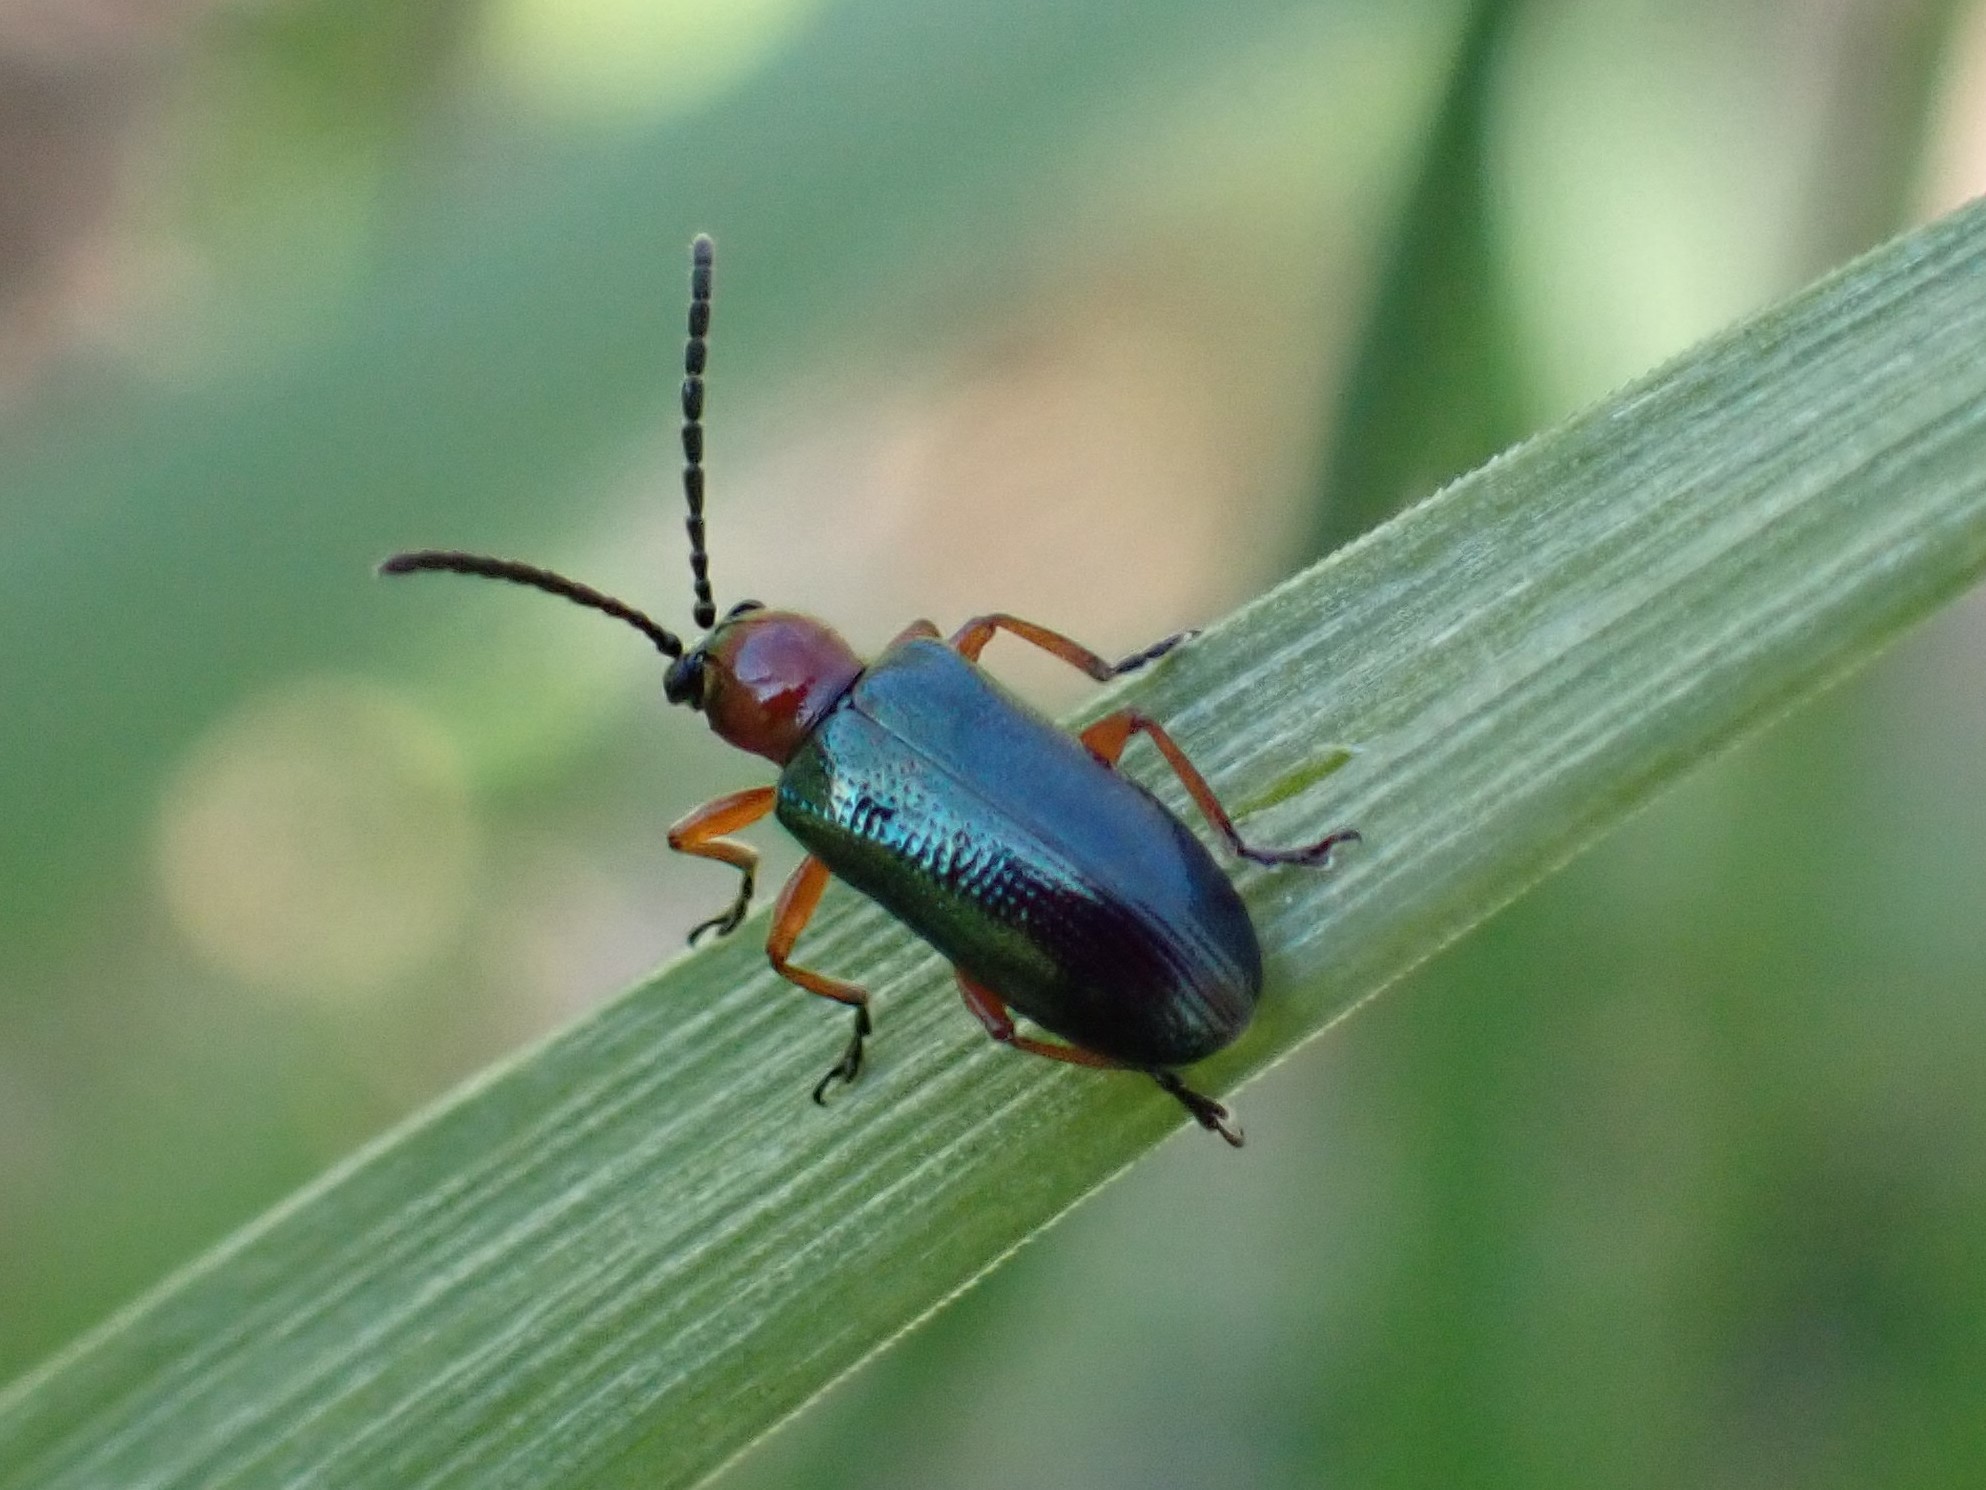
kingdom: Animalia
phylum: Arthropoda
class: Insecta
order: Coleoptera
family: Chrysomelidae
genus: Oulema
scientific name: Oulema melanopus
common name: Cereal leaf beetle
